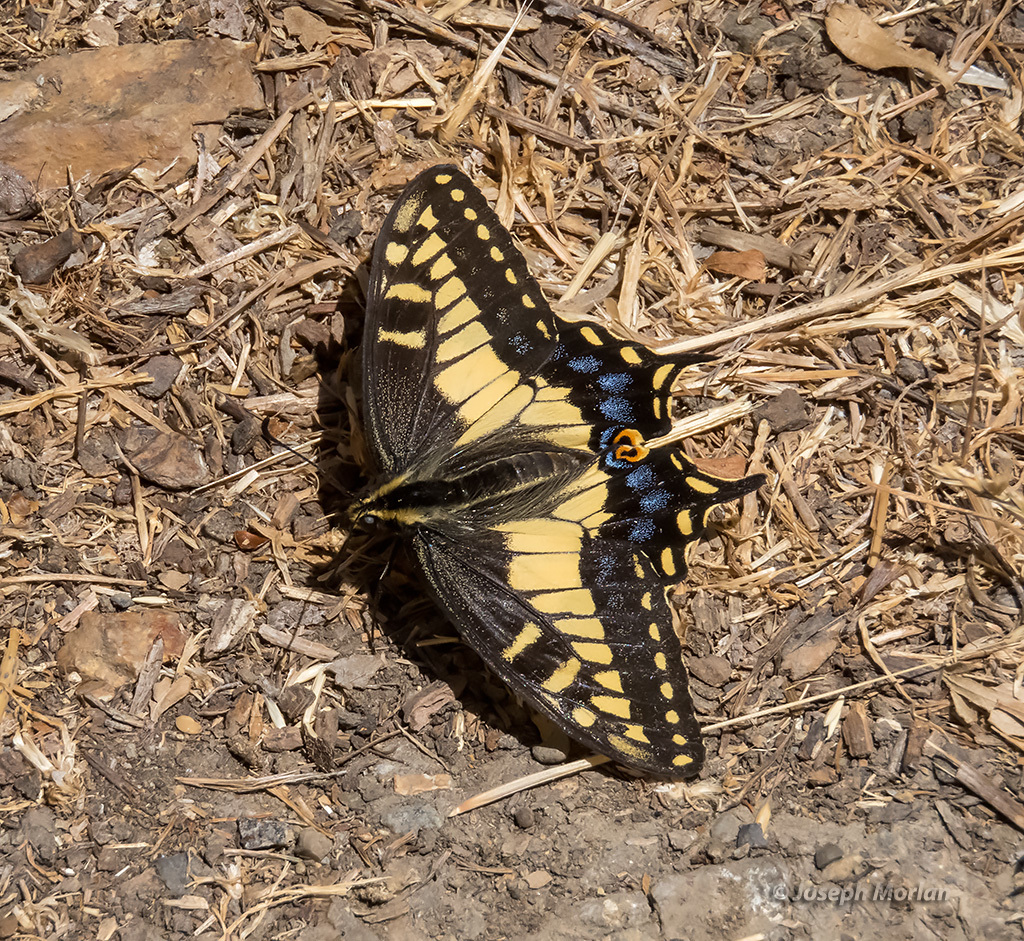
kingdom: Animalia
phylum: Arthropoda
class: Insecta
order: Lepidoptera
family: Papilionidae
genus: Papilio
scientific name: Papilio zelicaon
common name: Anise swallowtail
